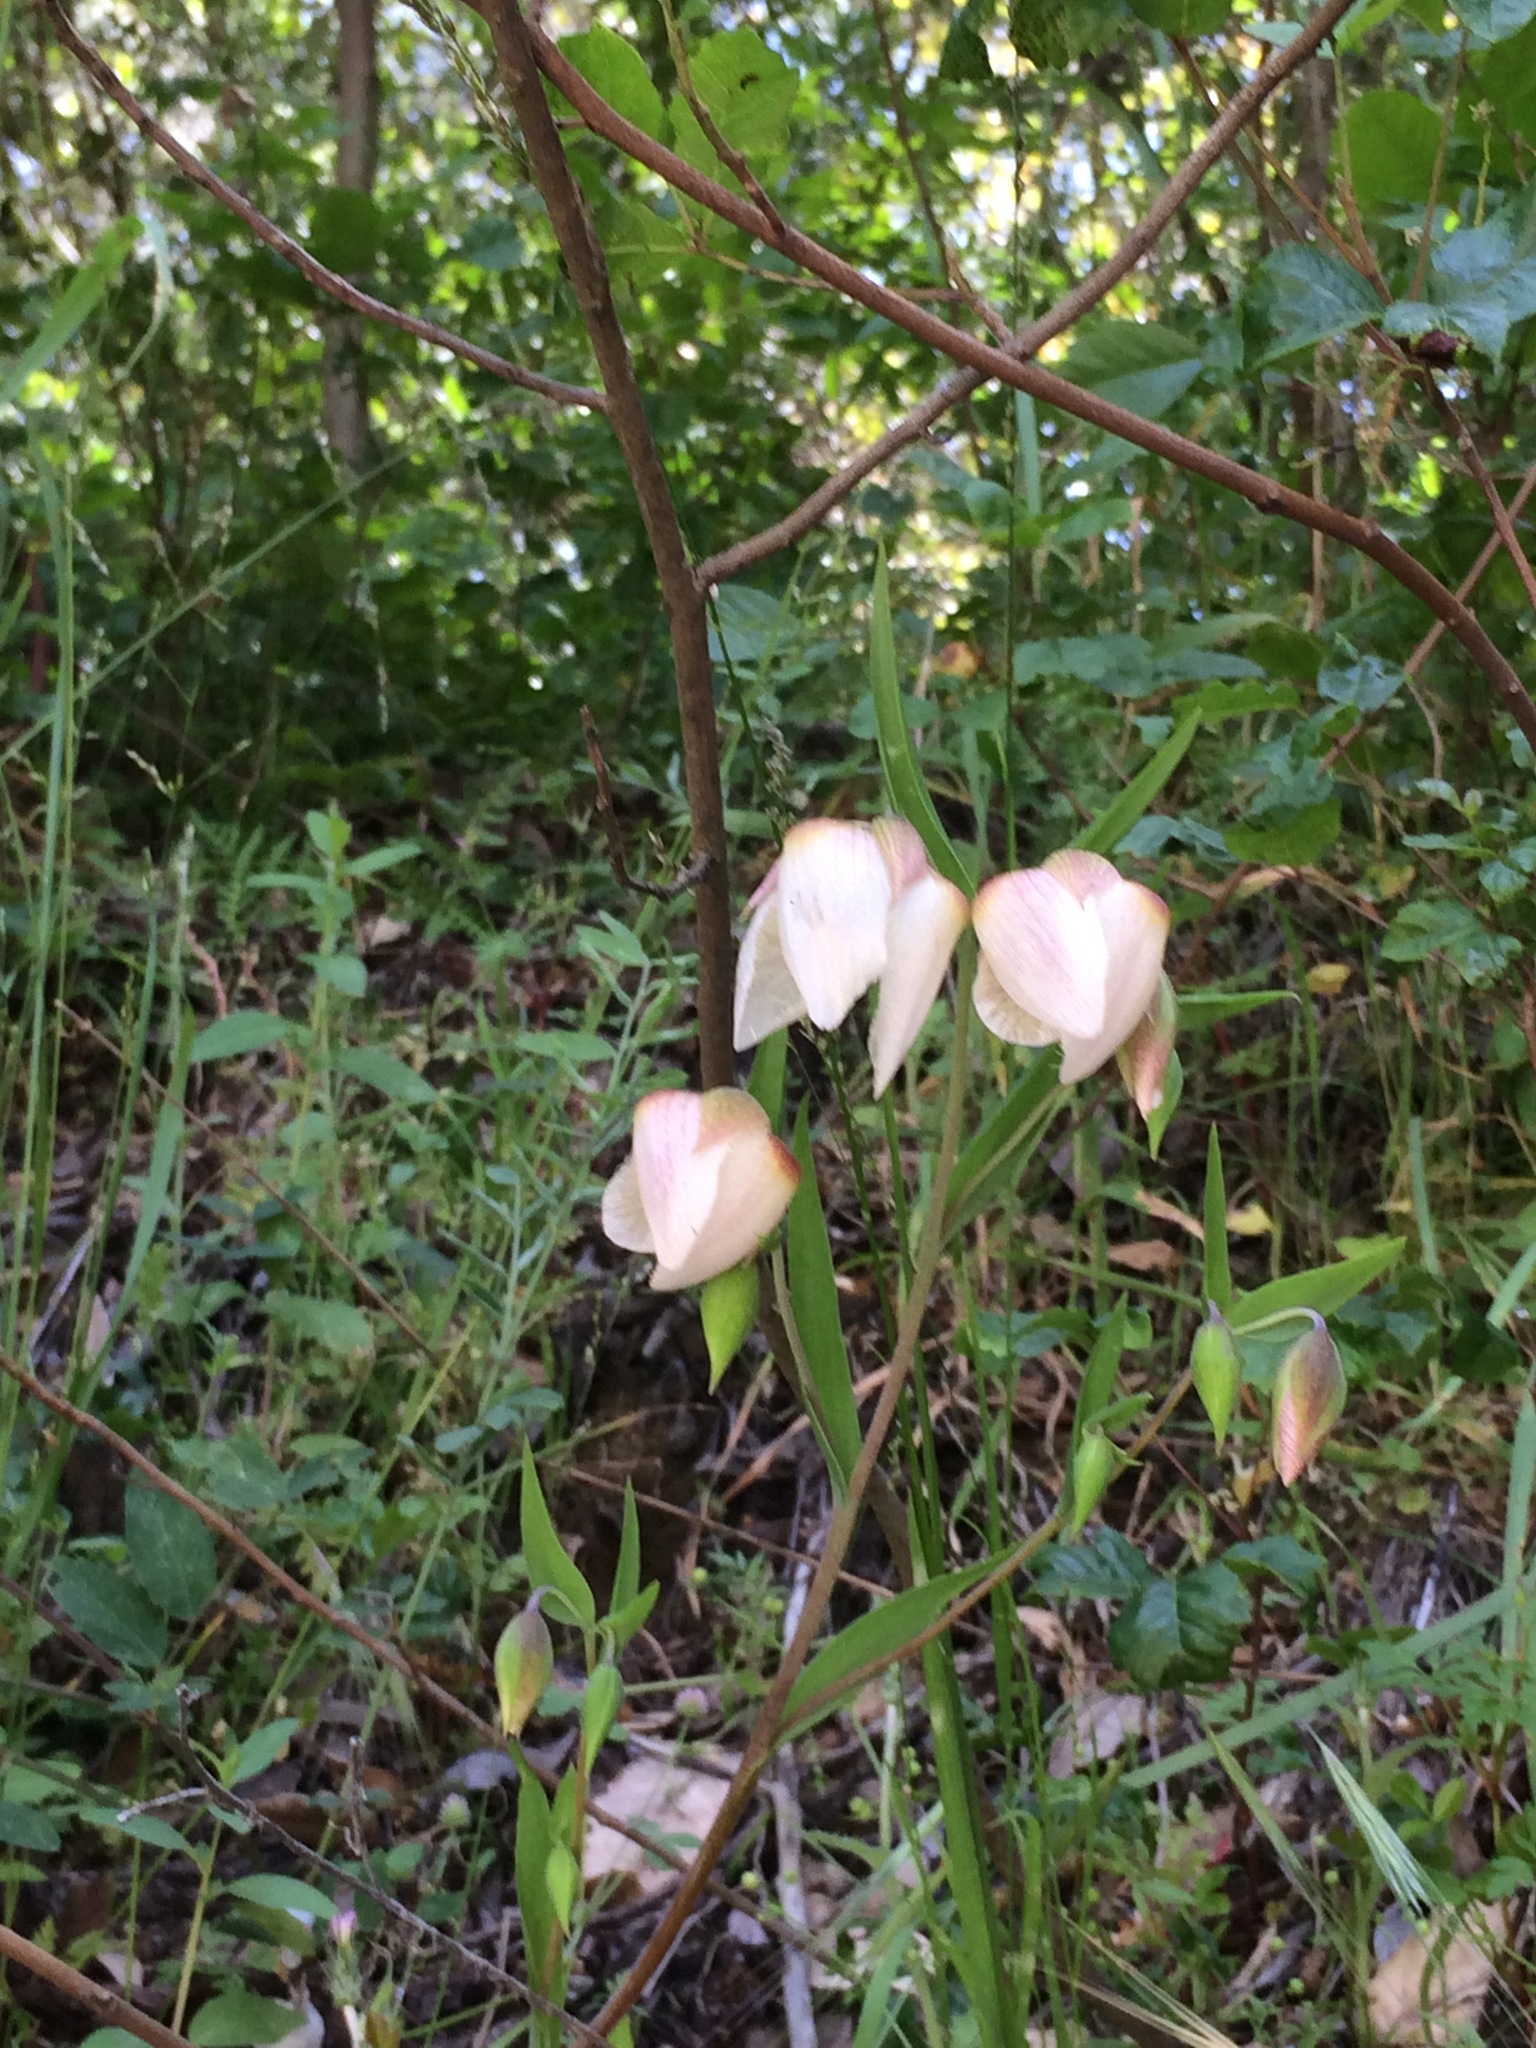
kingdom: Plantae
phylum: Tracheophyta
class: Liliopsida
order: Liliales
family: Liliaceae
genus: Calochortus
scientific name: Calochortus albus
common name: Fairy-lantern
